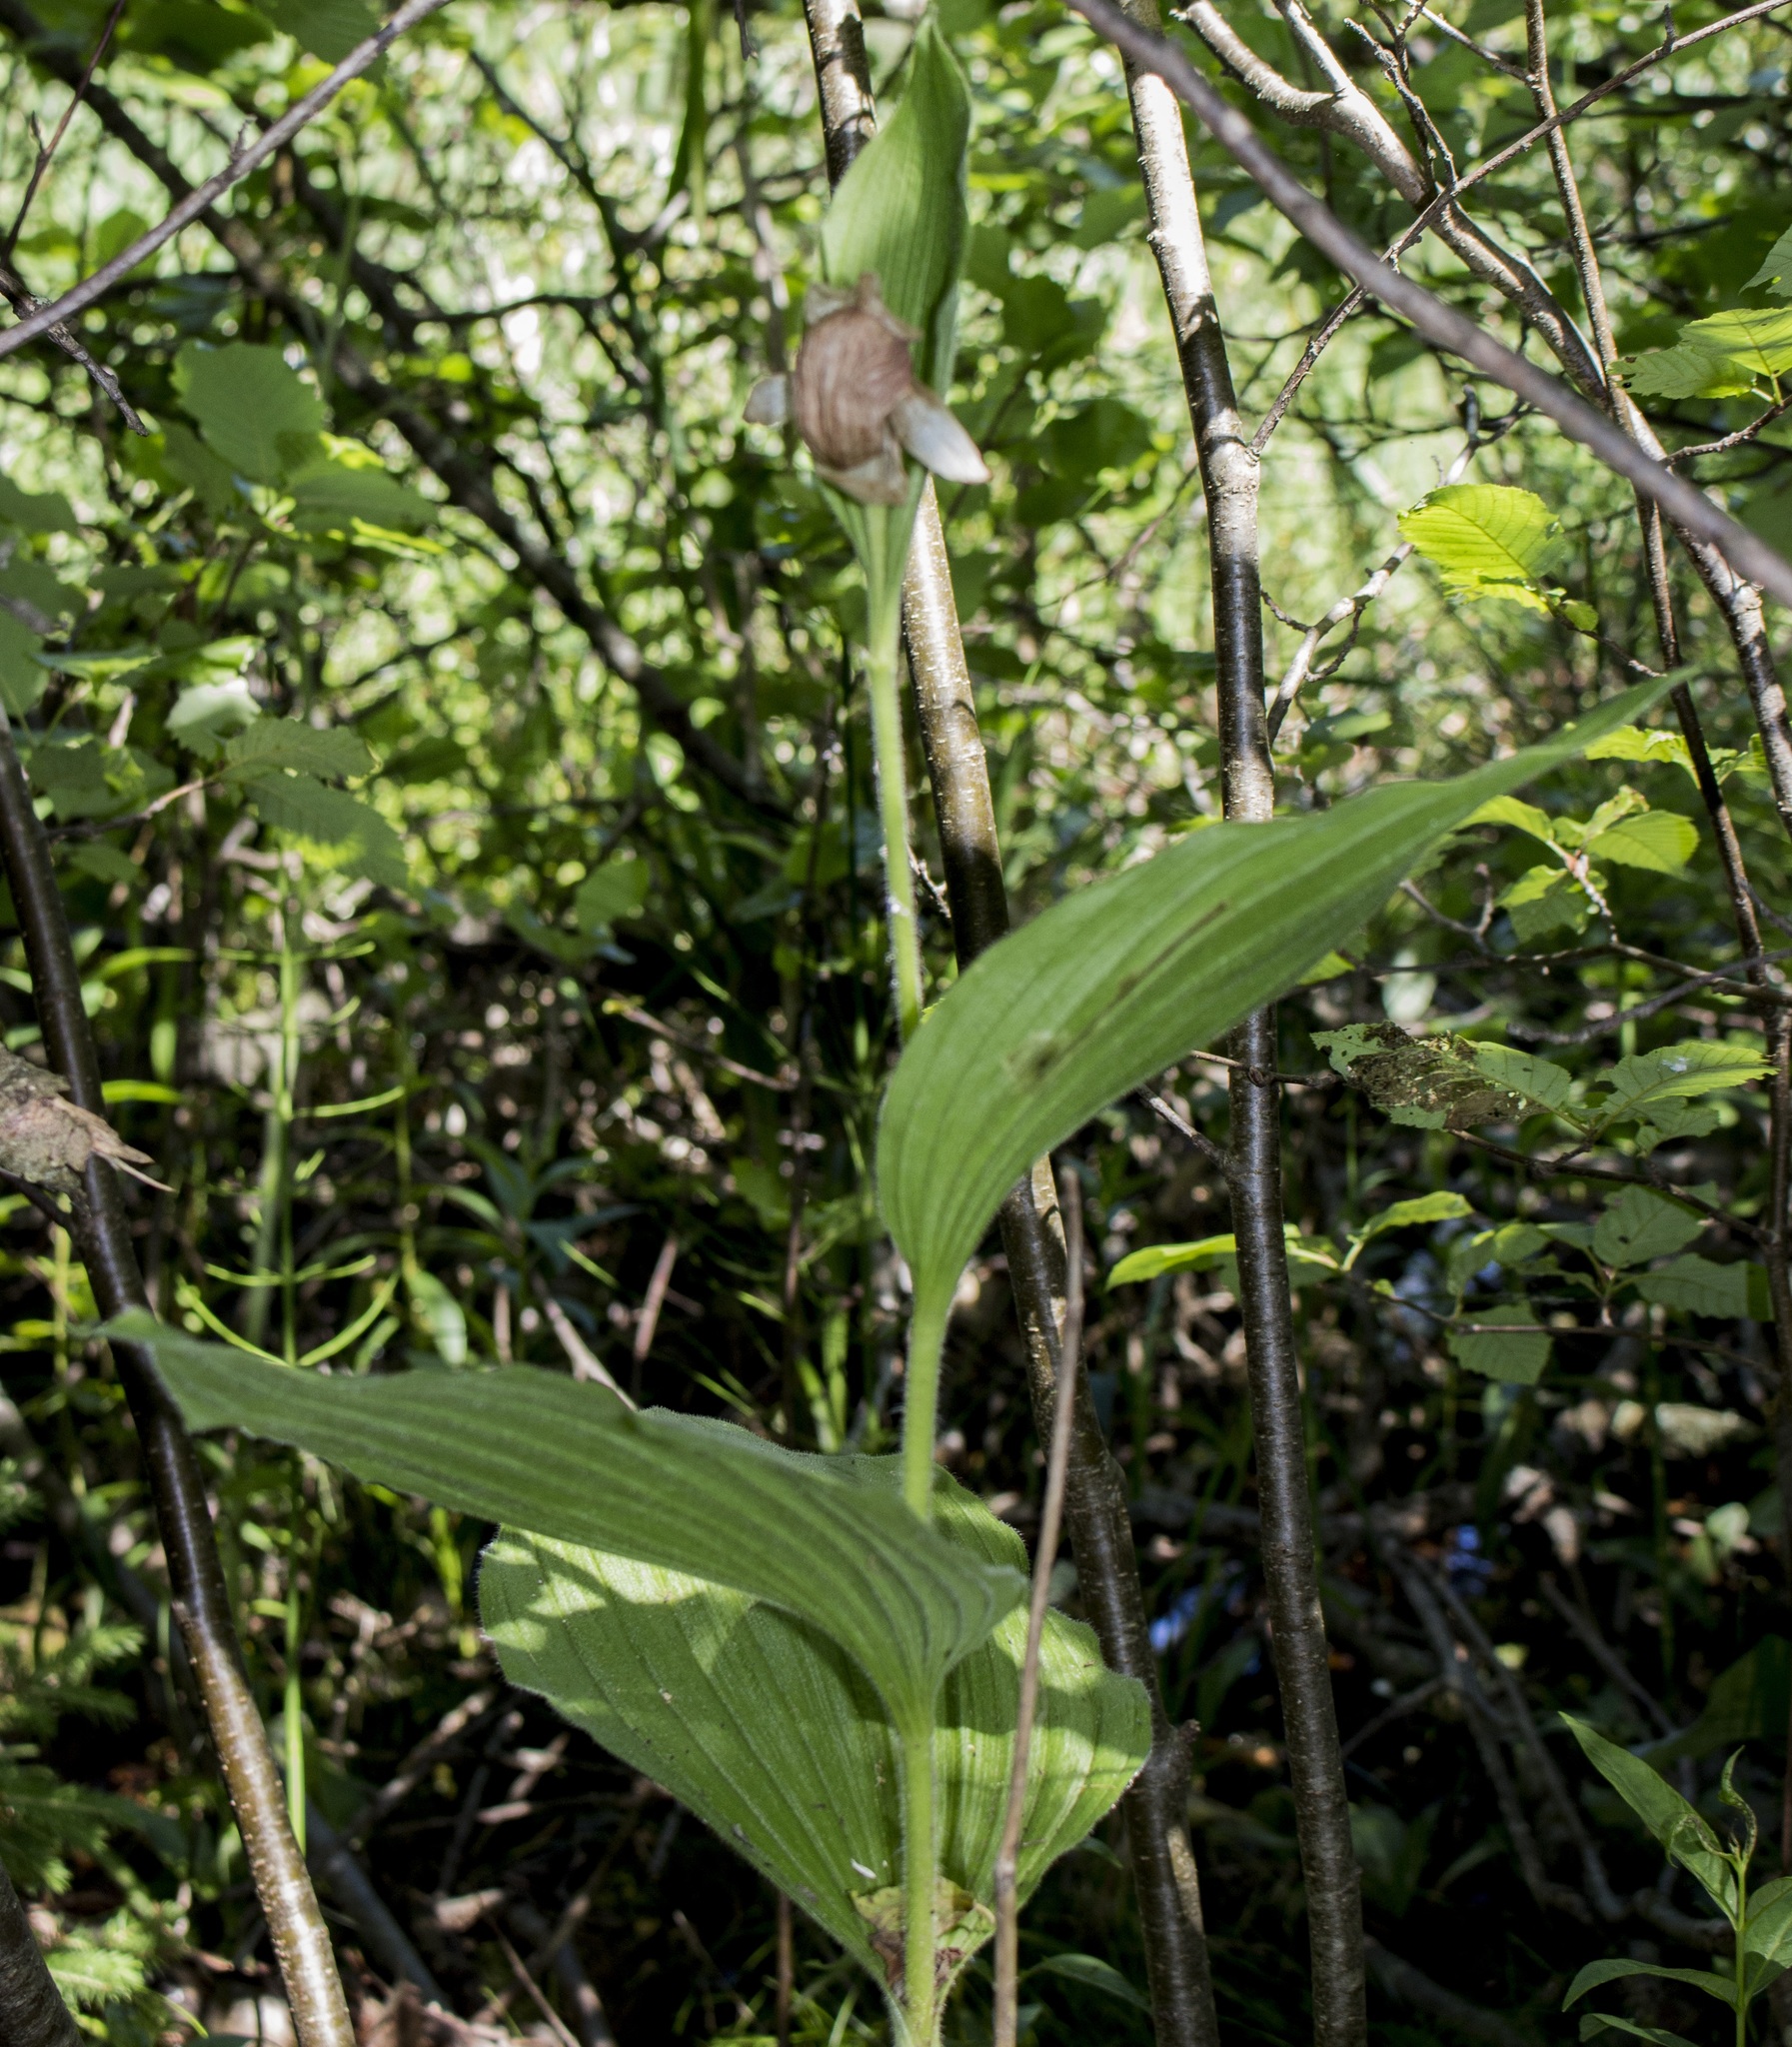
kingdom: Plantae
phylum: Tracheophyta
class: Liliopsida
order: Asparagales
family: Orchidaceae
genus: Cypripedium
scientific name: Cypripedium reginae
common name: Queen lady's-slipper
